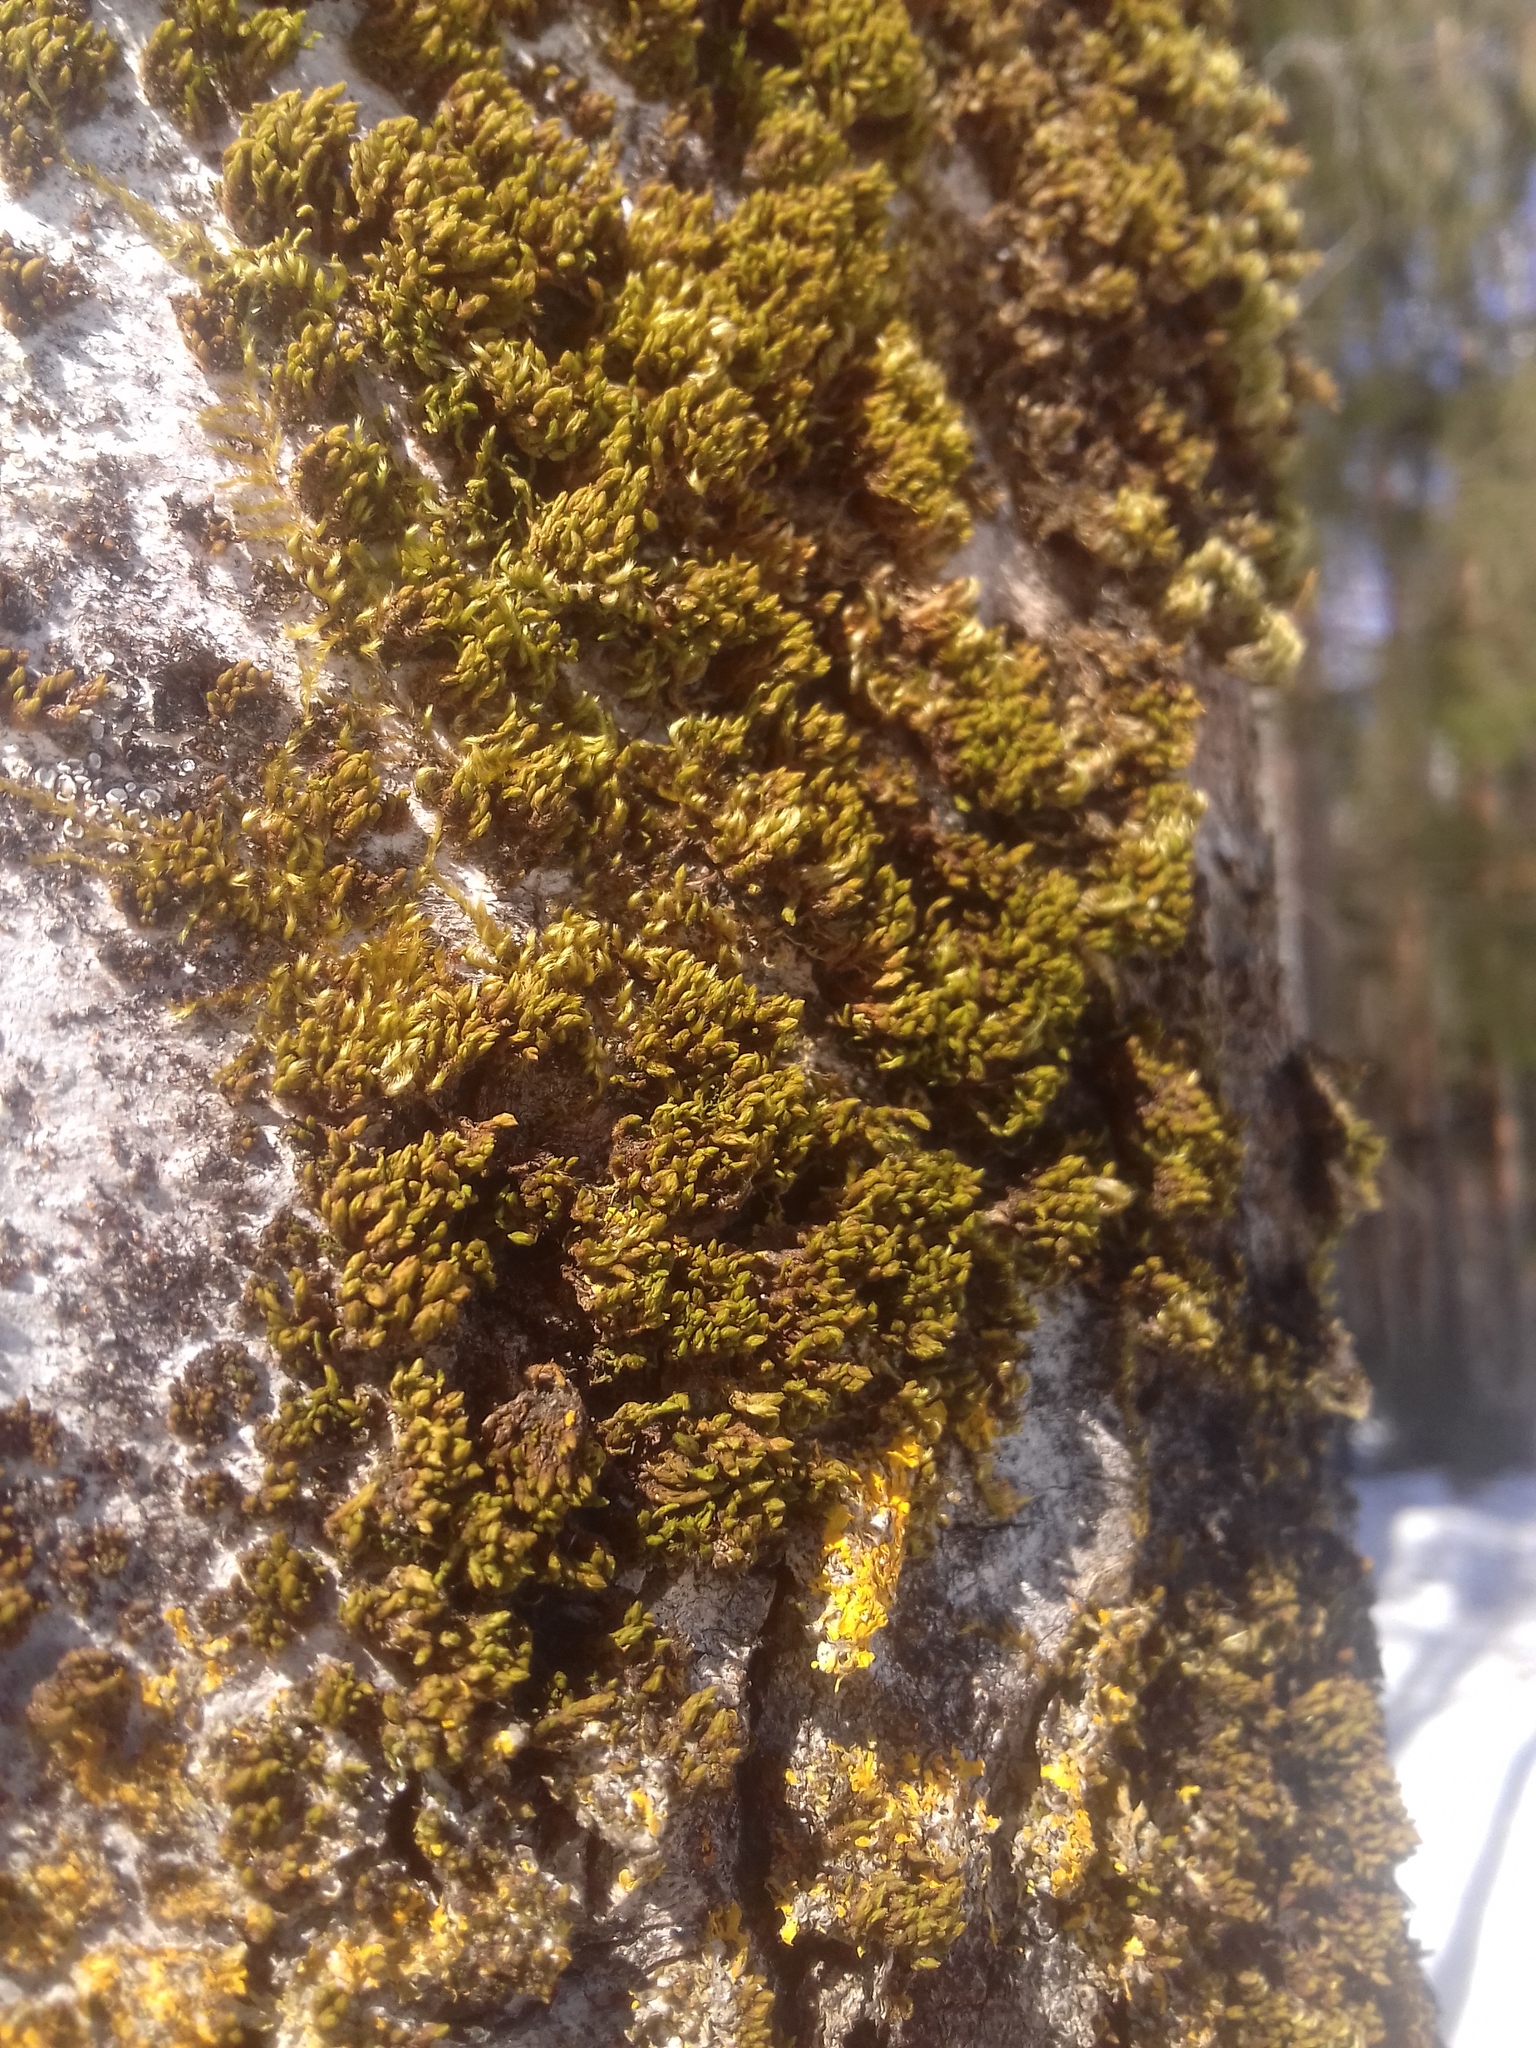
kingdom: Plantae
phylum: Bryophyta
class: Bryopsida
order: Orthotrichales
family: Orthotrichaceae
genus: Nyholmiella
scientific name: Nyholmiella obtusifolia
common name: Blunt-leaved bristle-moss
